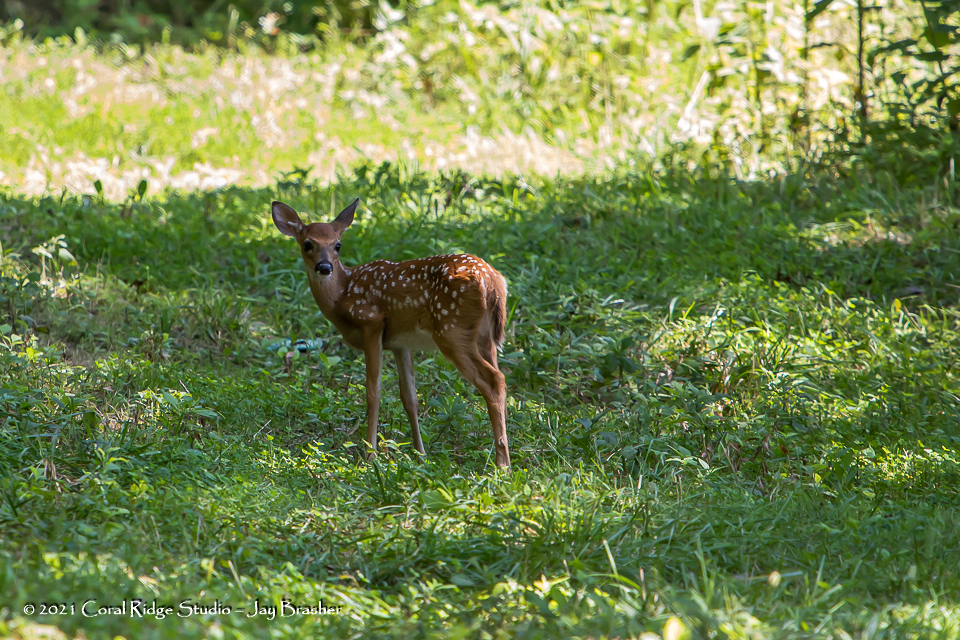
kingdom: Animalia
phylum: Chordata
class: Mammalia
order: Artiodactyla
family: Cervidae
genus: Odocoileus
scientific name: Odocoileus virginianus
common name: White-tailed deer
